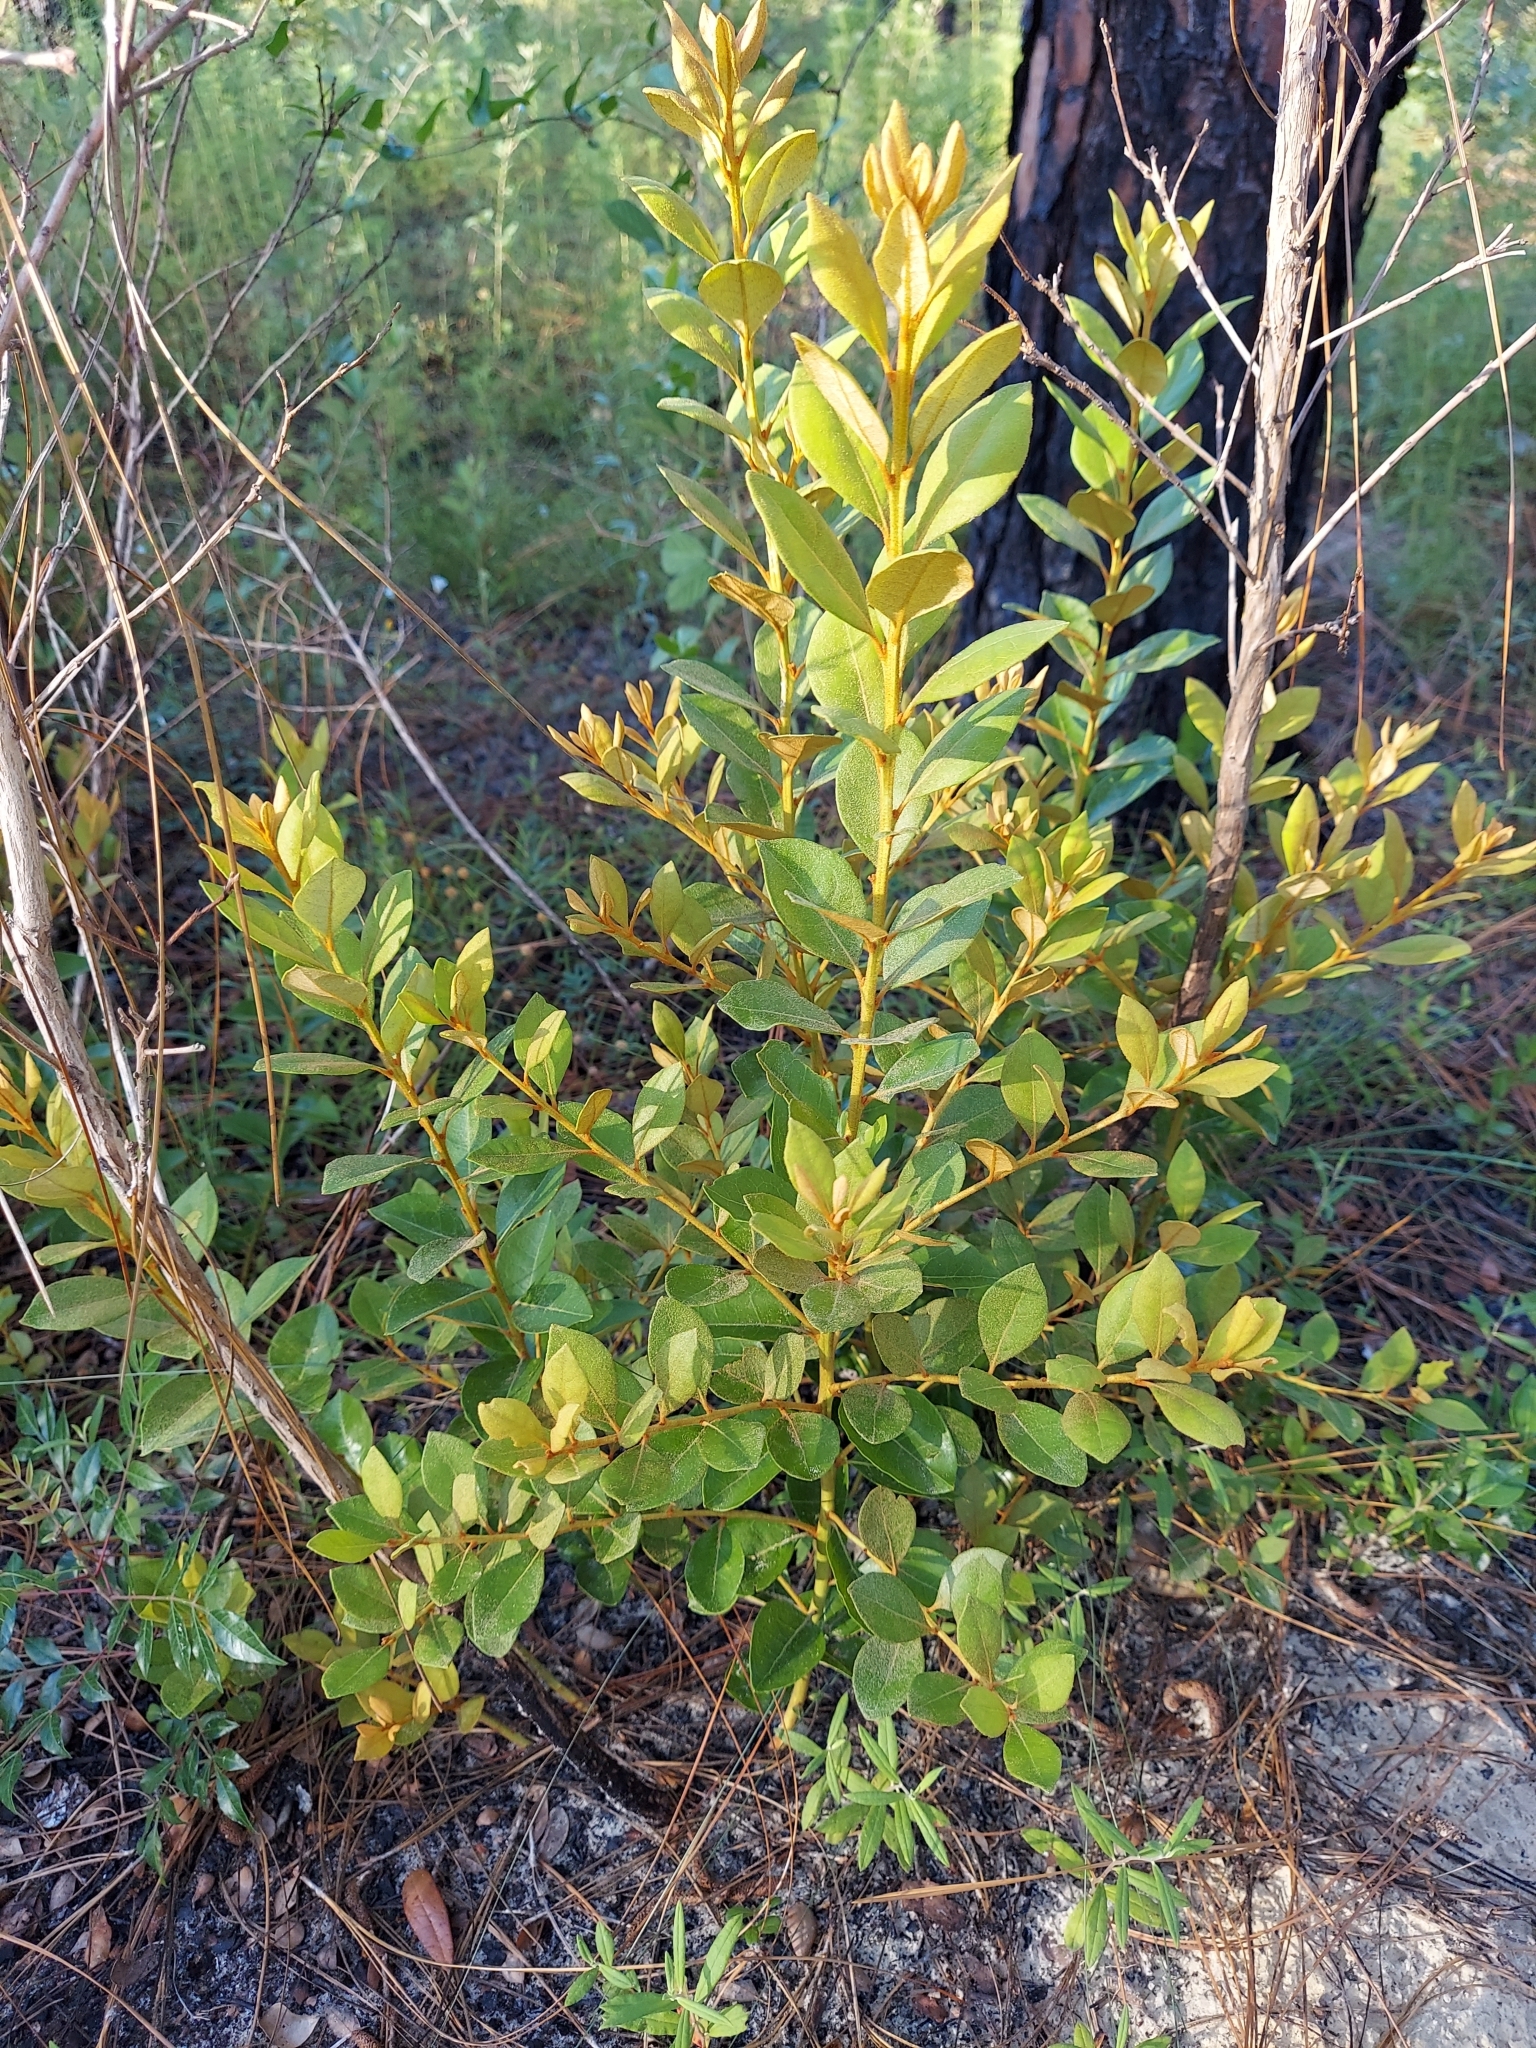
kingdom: Plantae
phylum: Tracheophyta
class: Magnoliopsida
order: Ericales
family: Ericaceae
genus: Lyonia
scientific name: Lyonia fruticosa
